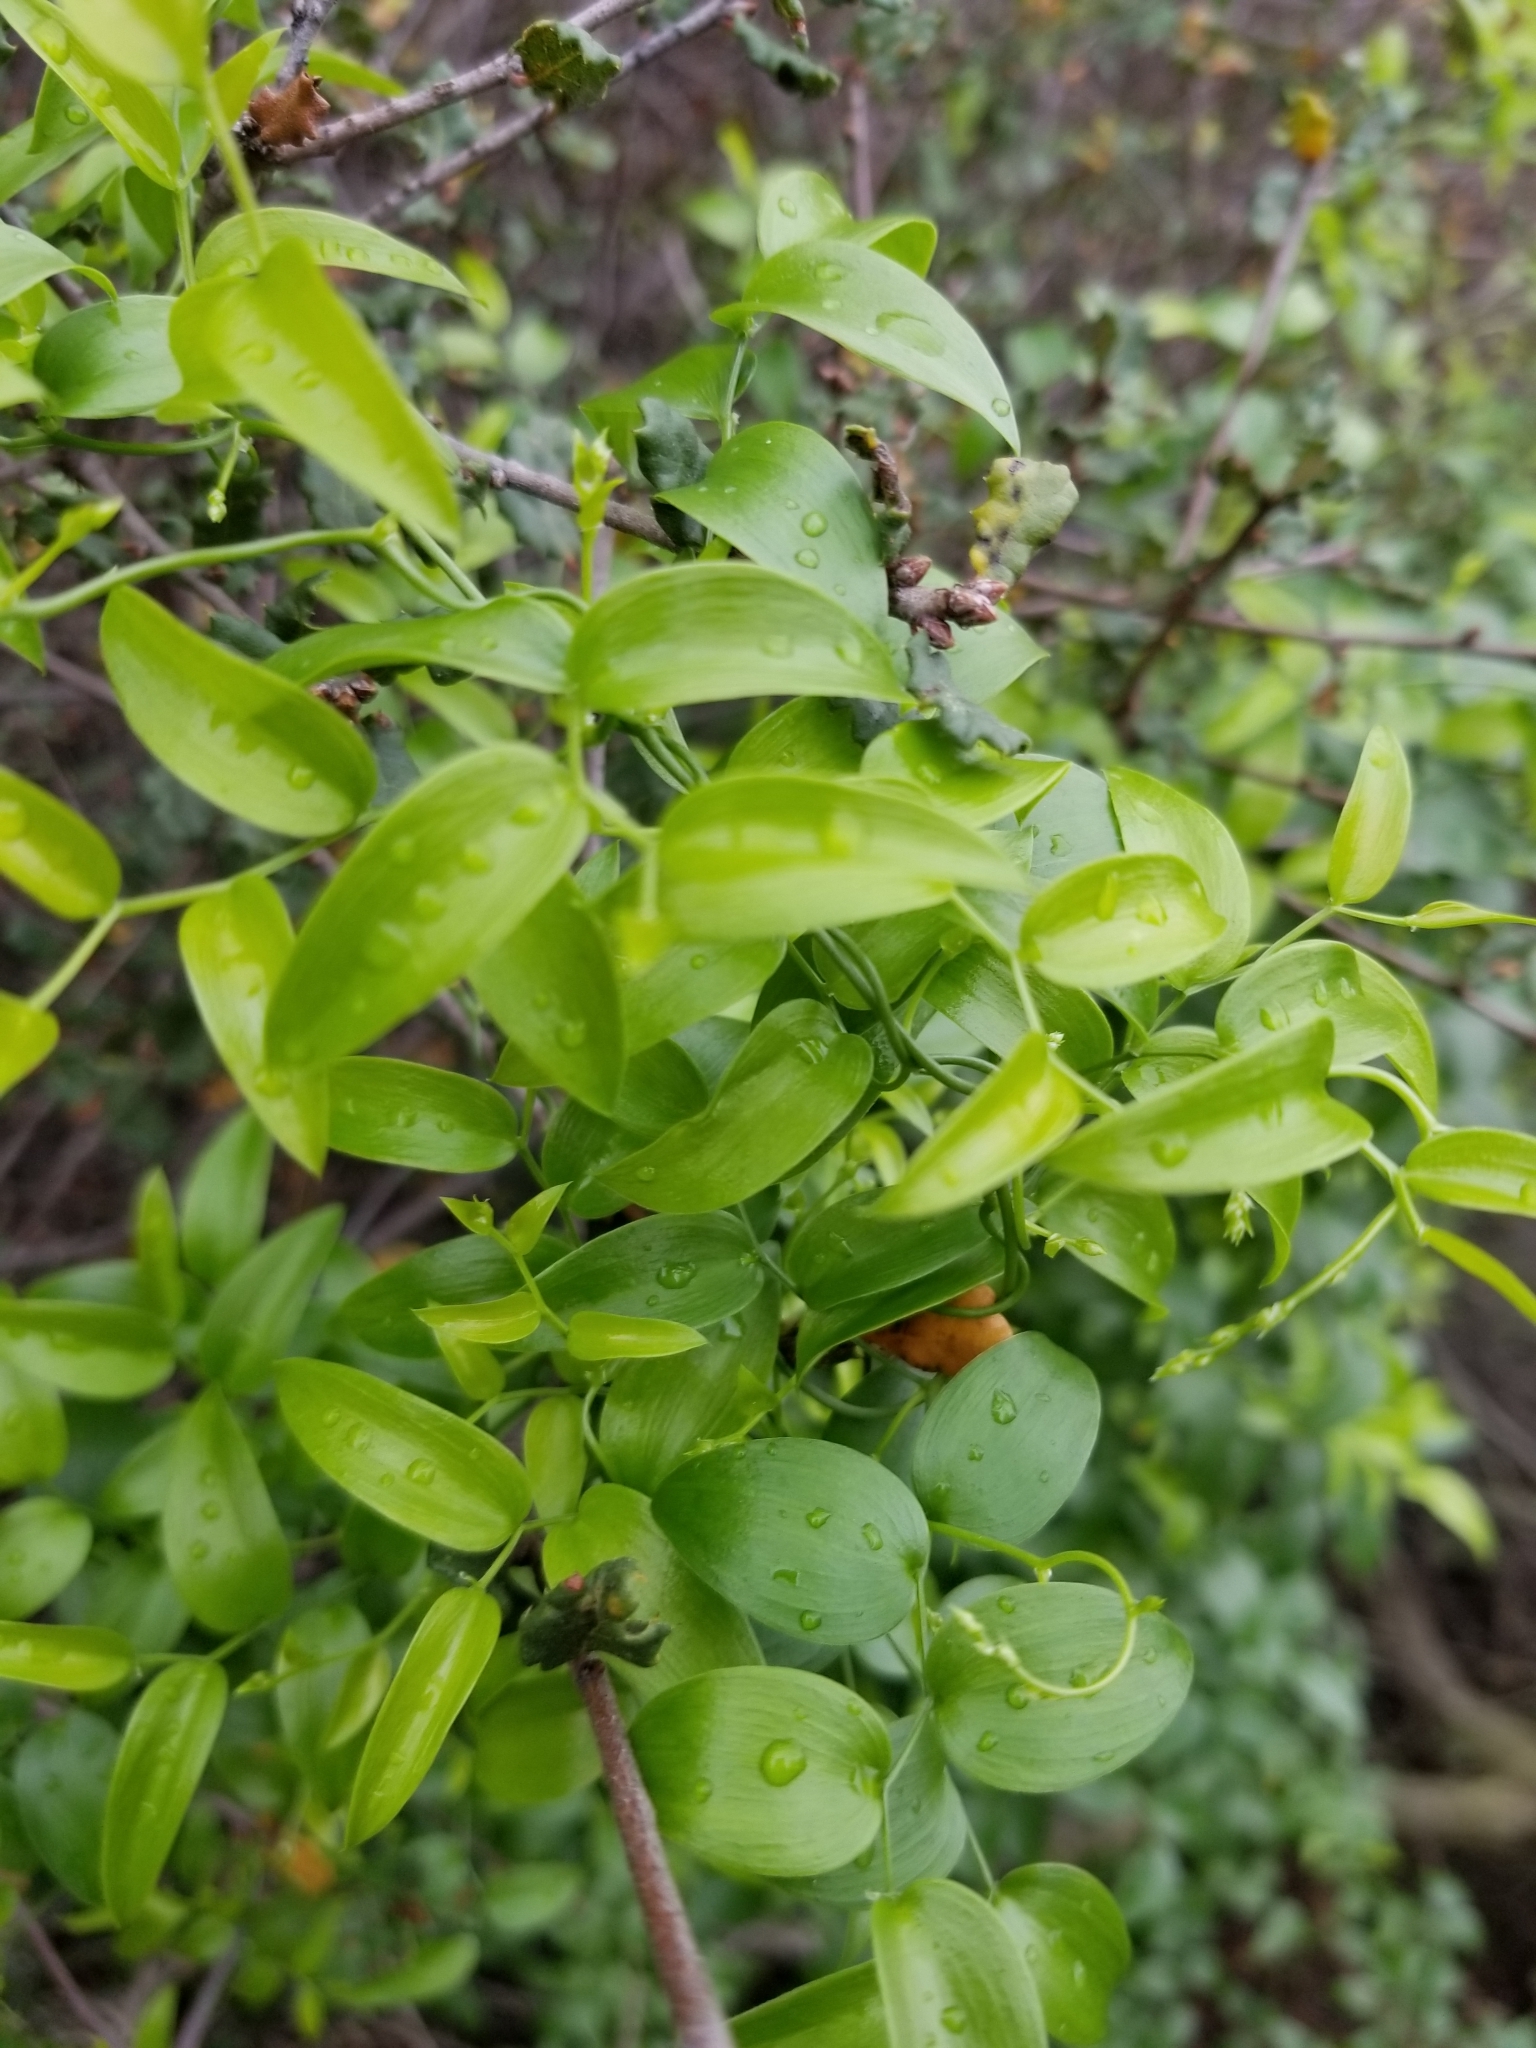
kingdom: Plantae
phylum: Tracheophyta
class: Liliopsida
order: Asparagales
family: Asparagaceae
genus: Asparagus
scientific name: Asparagus asparagoides
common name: African asparagus fern
